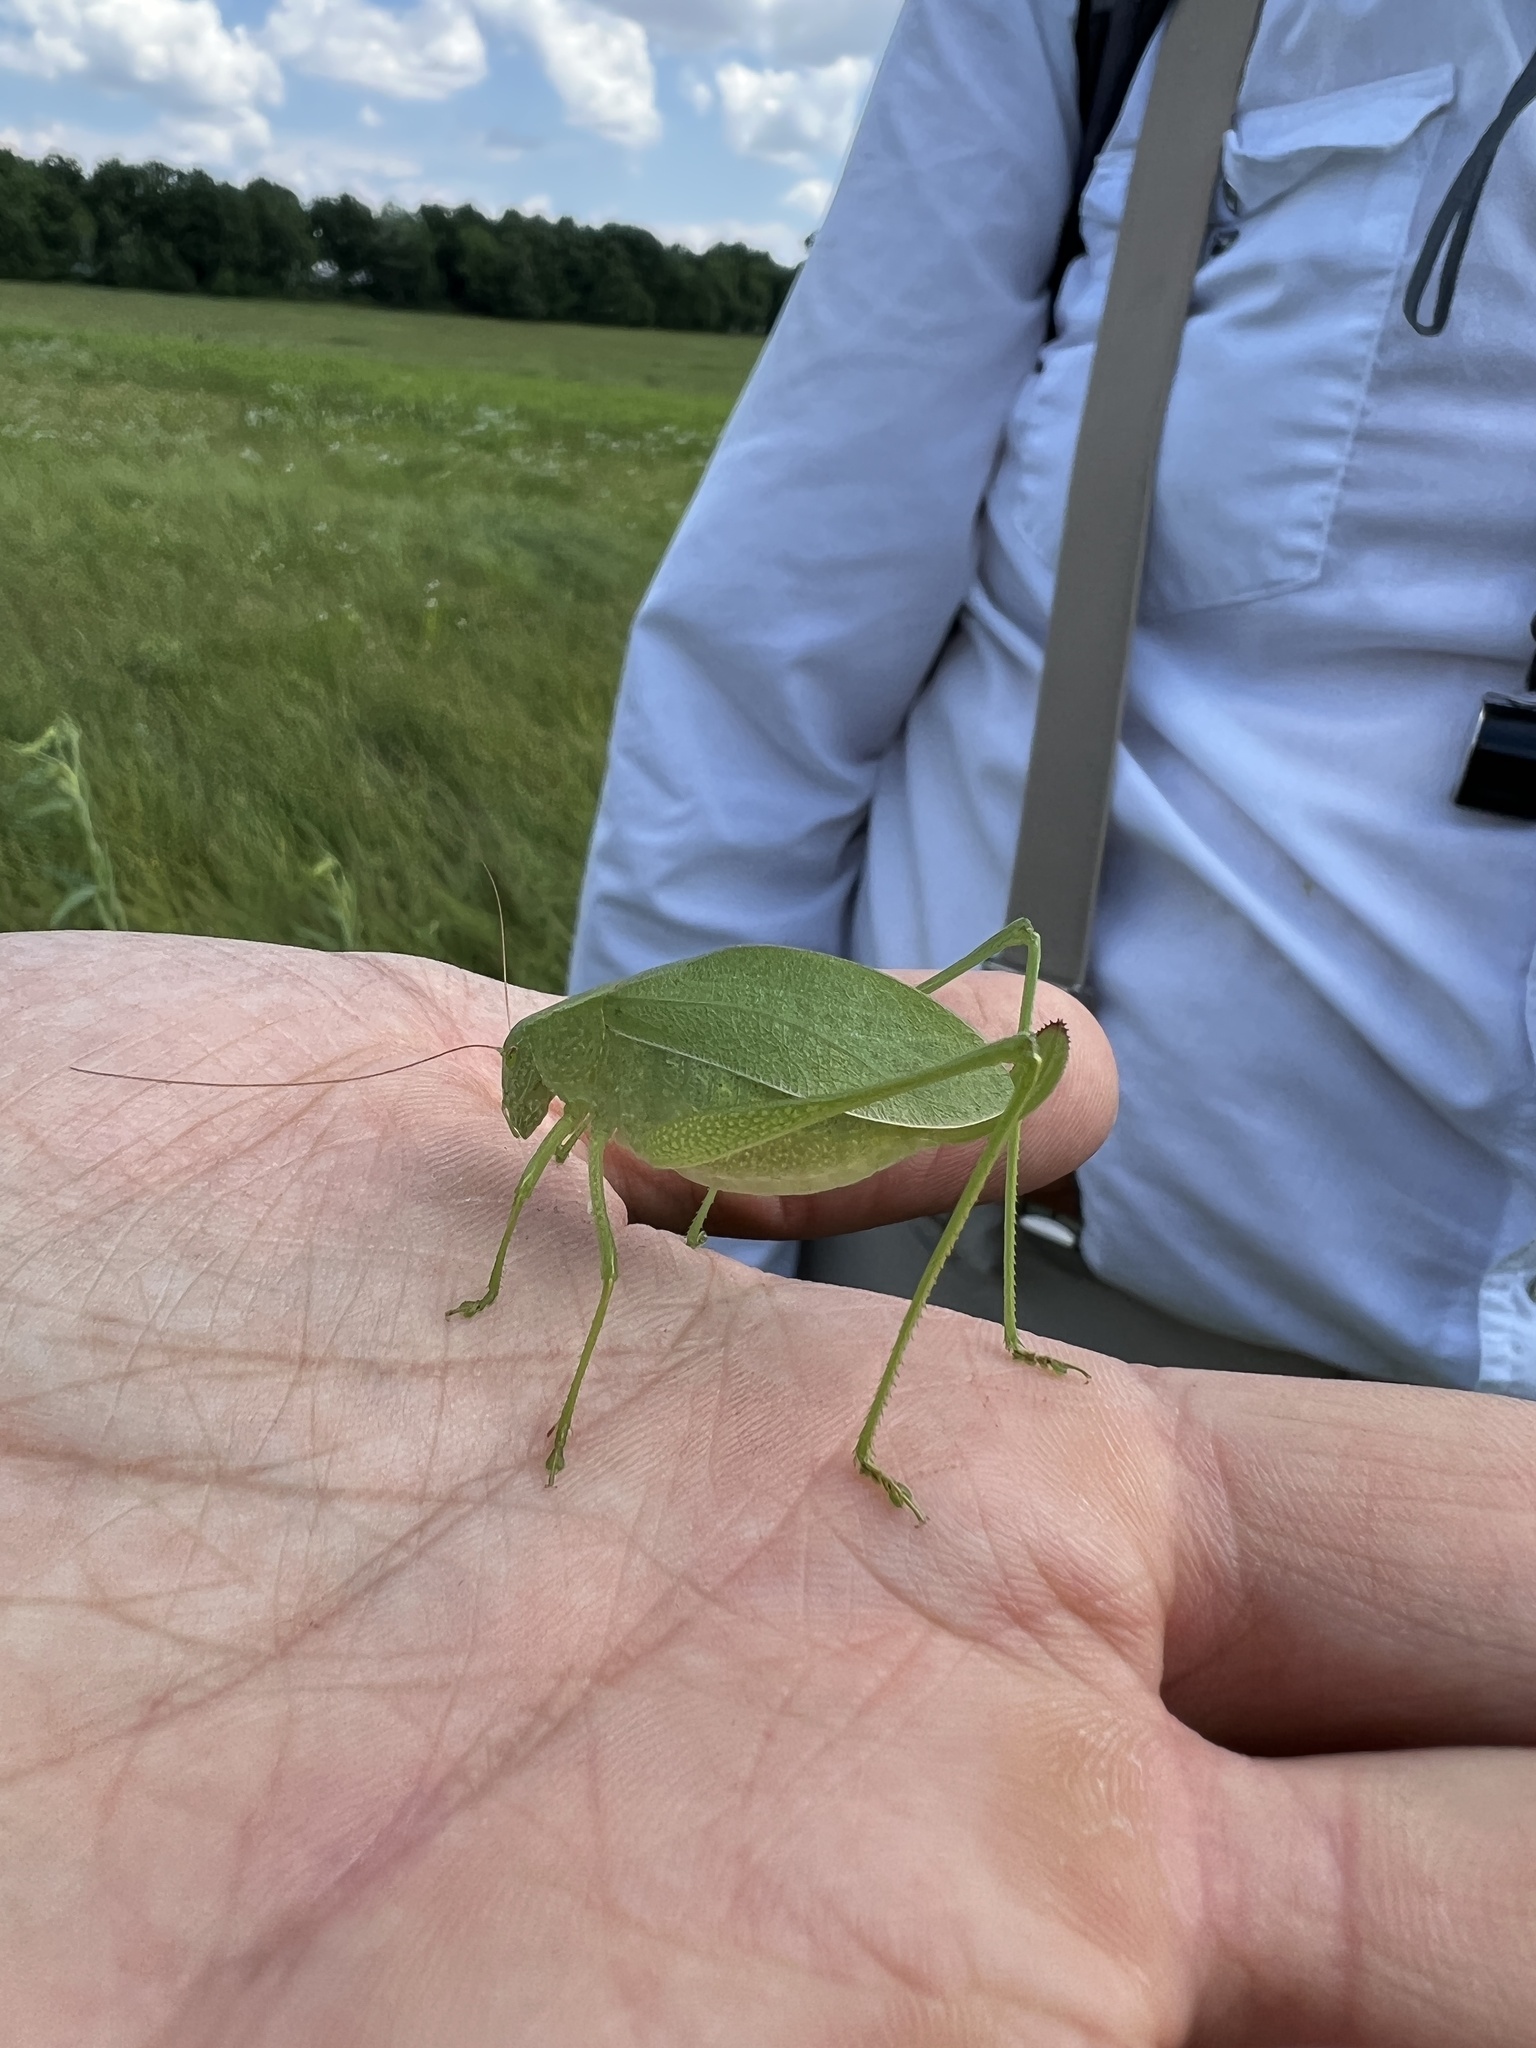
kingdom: Animalia
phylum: Arthropoda
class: Insecta
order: Orthoptera
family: Tettigoniidae
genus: Amblycorypha
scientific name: Amblycorypha oblongifolia
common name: Oblong-winged katydid
